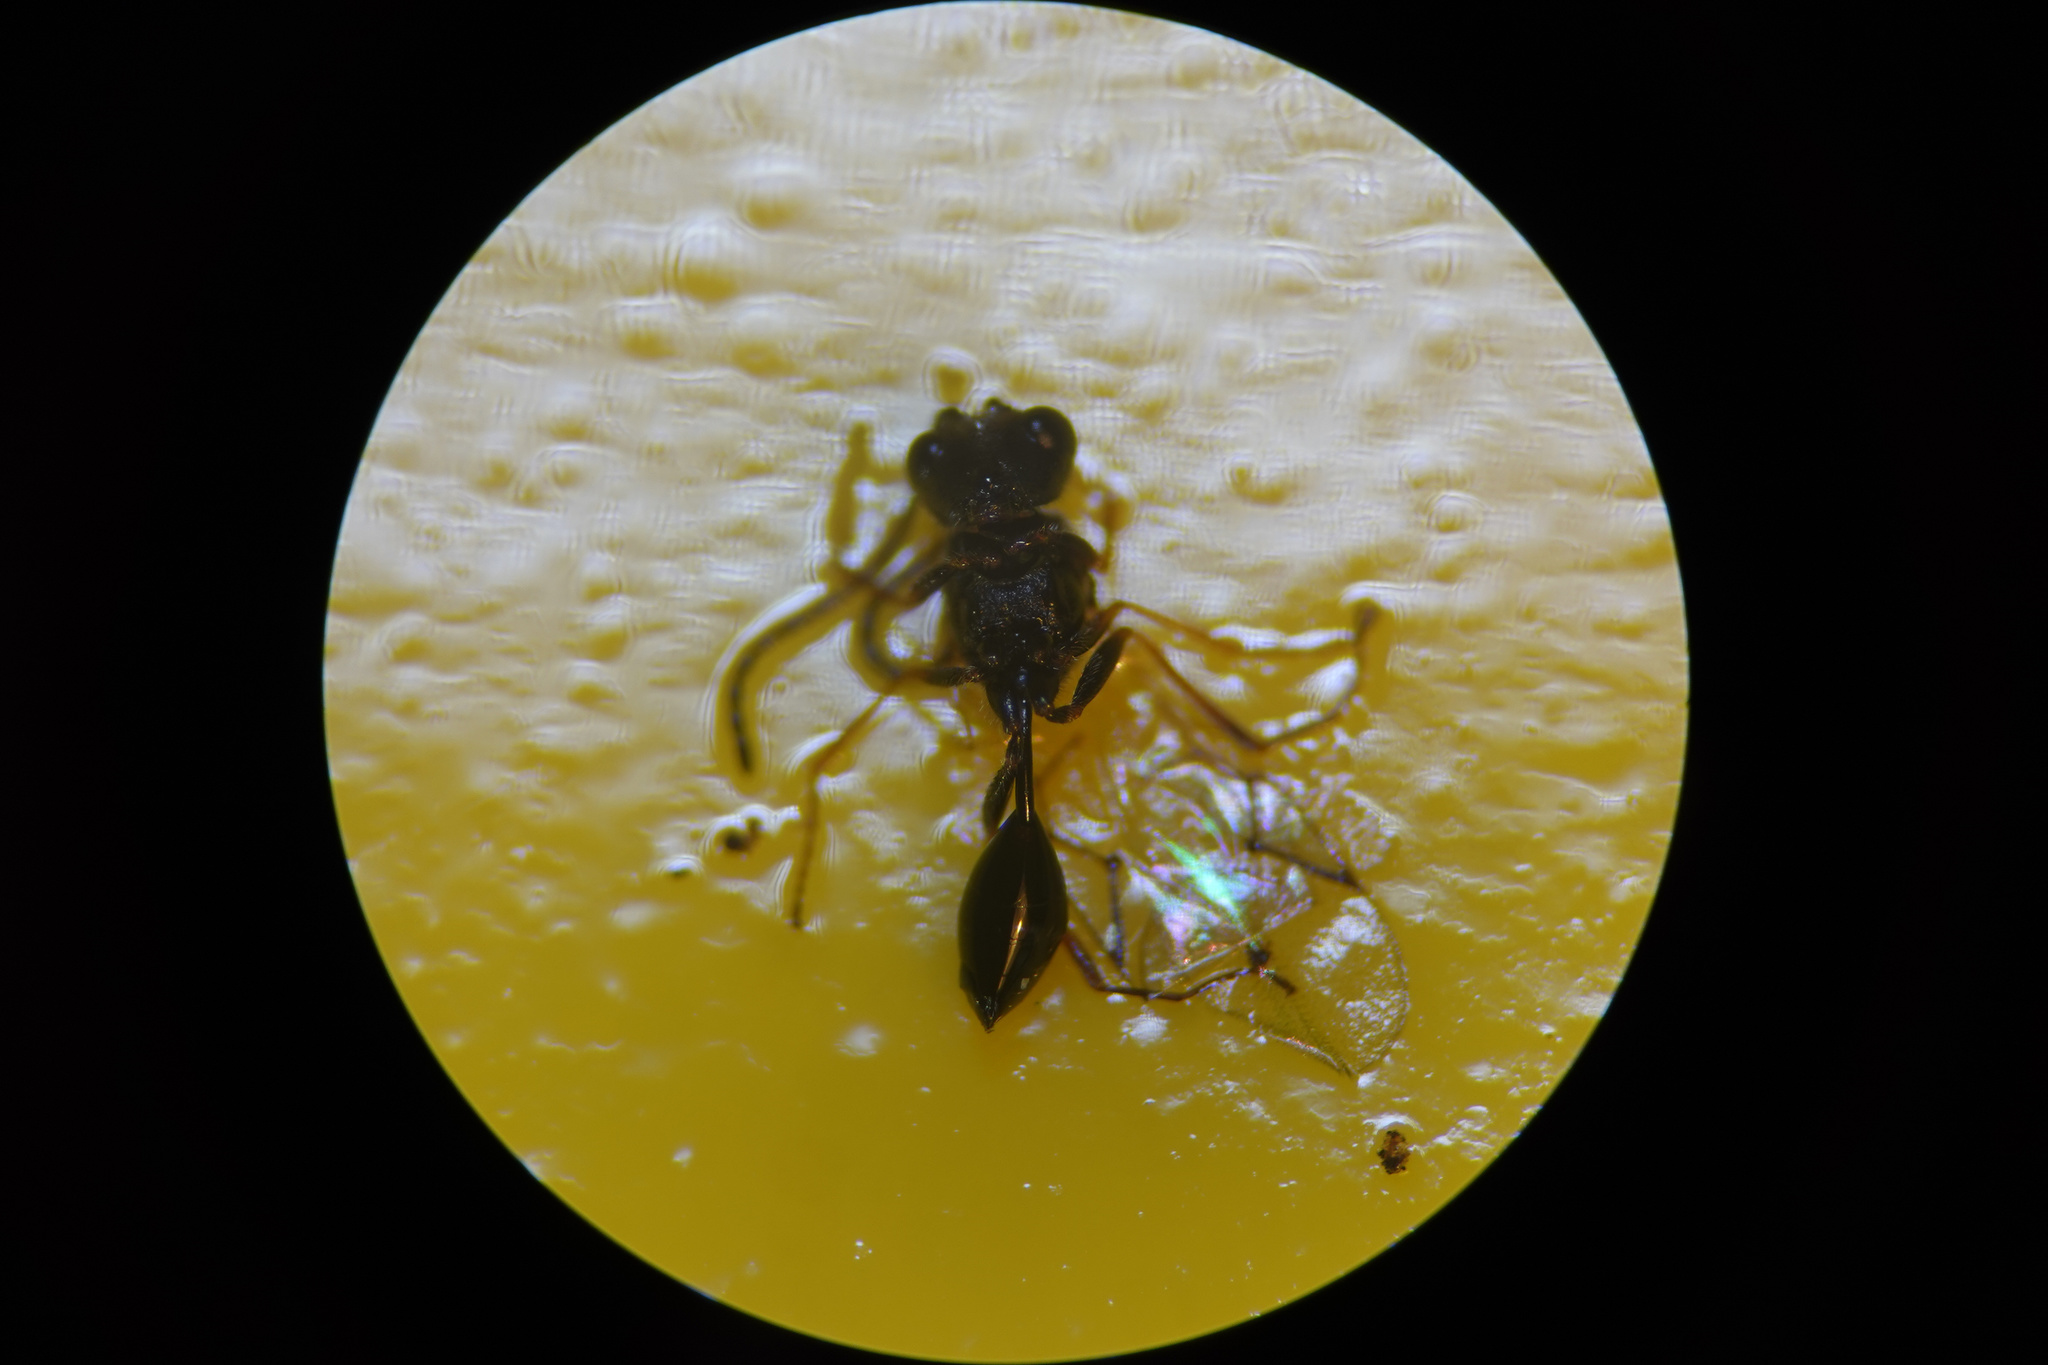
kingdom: Animalia
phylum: Arthropoda
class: Insecta
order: Hymenoptera
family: Figitidae
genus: Anacharis
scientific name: Anacharis zealandica
